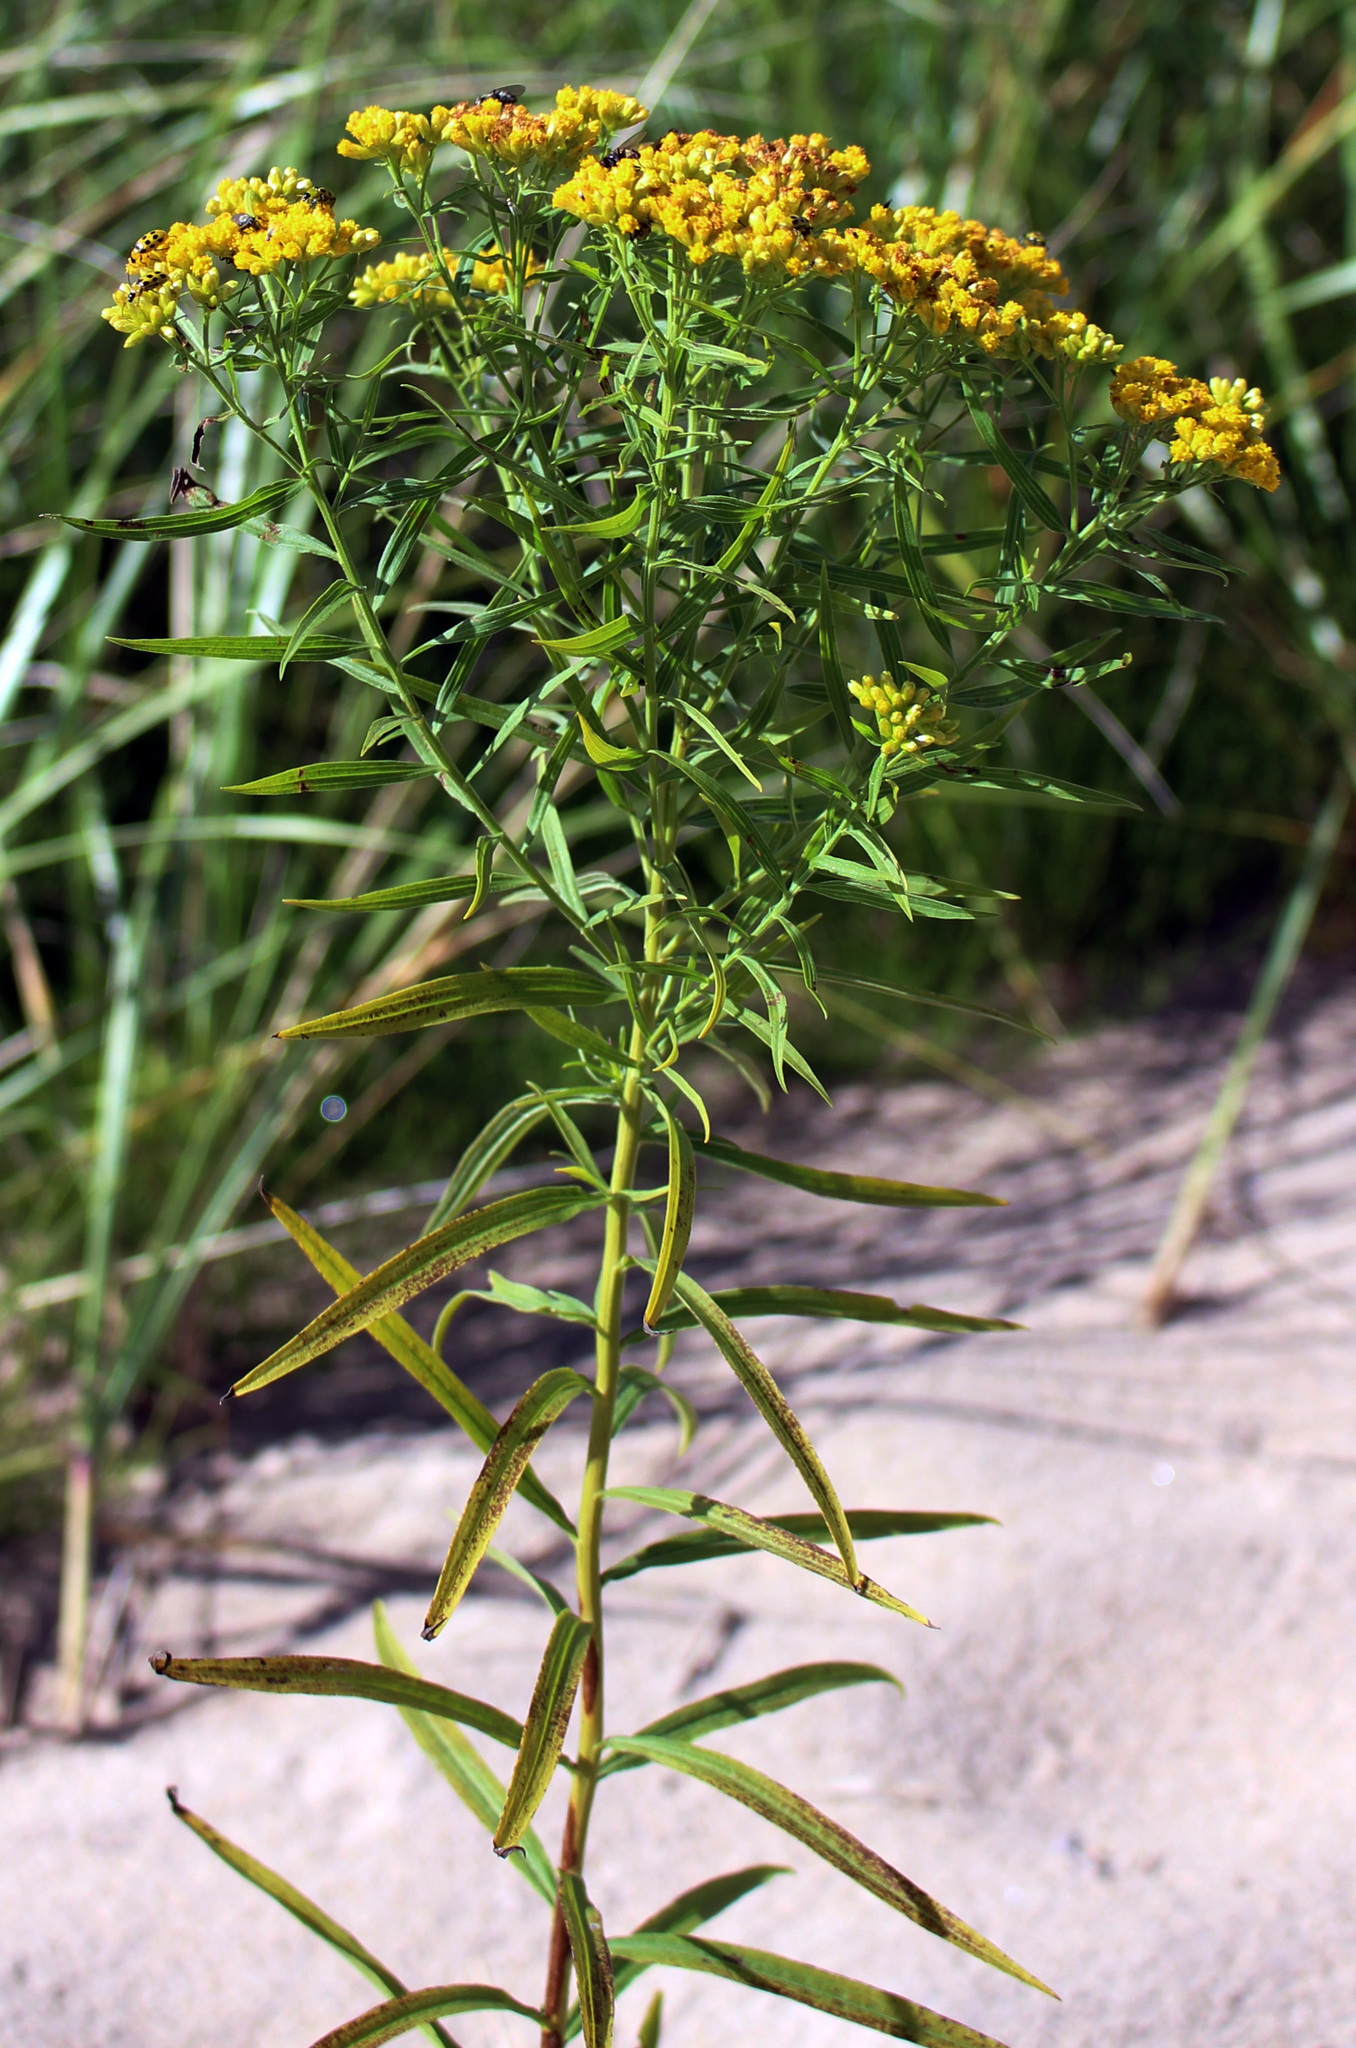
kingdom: Plantae
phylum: Tracheophyta
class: Magnoliopsida
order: Asterales
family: Asteraceae
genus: Euthamia
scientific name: Euthamia graminifolia
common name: Common goldentop
